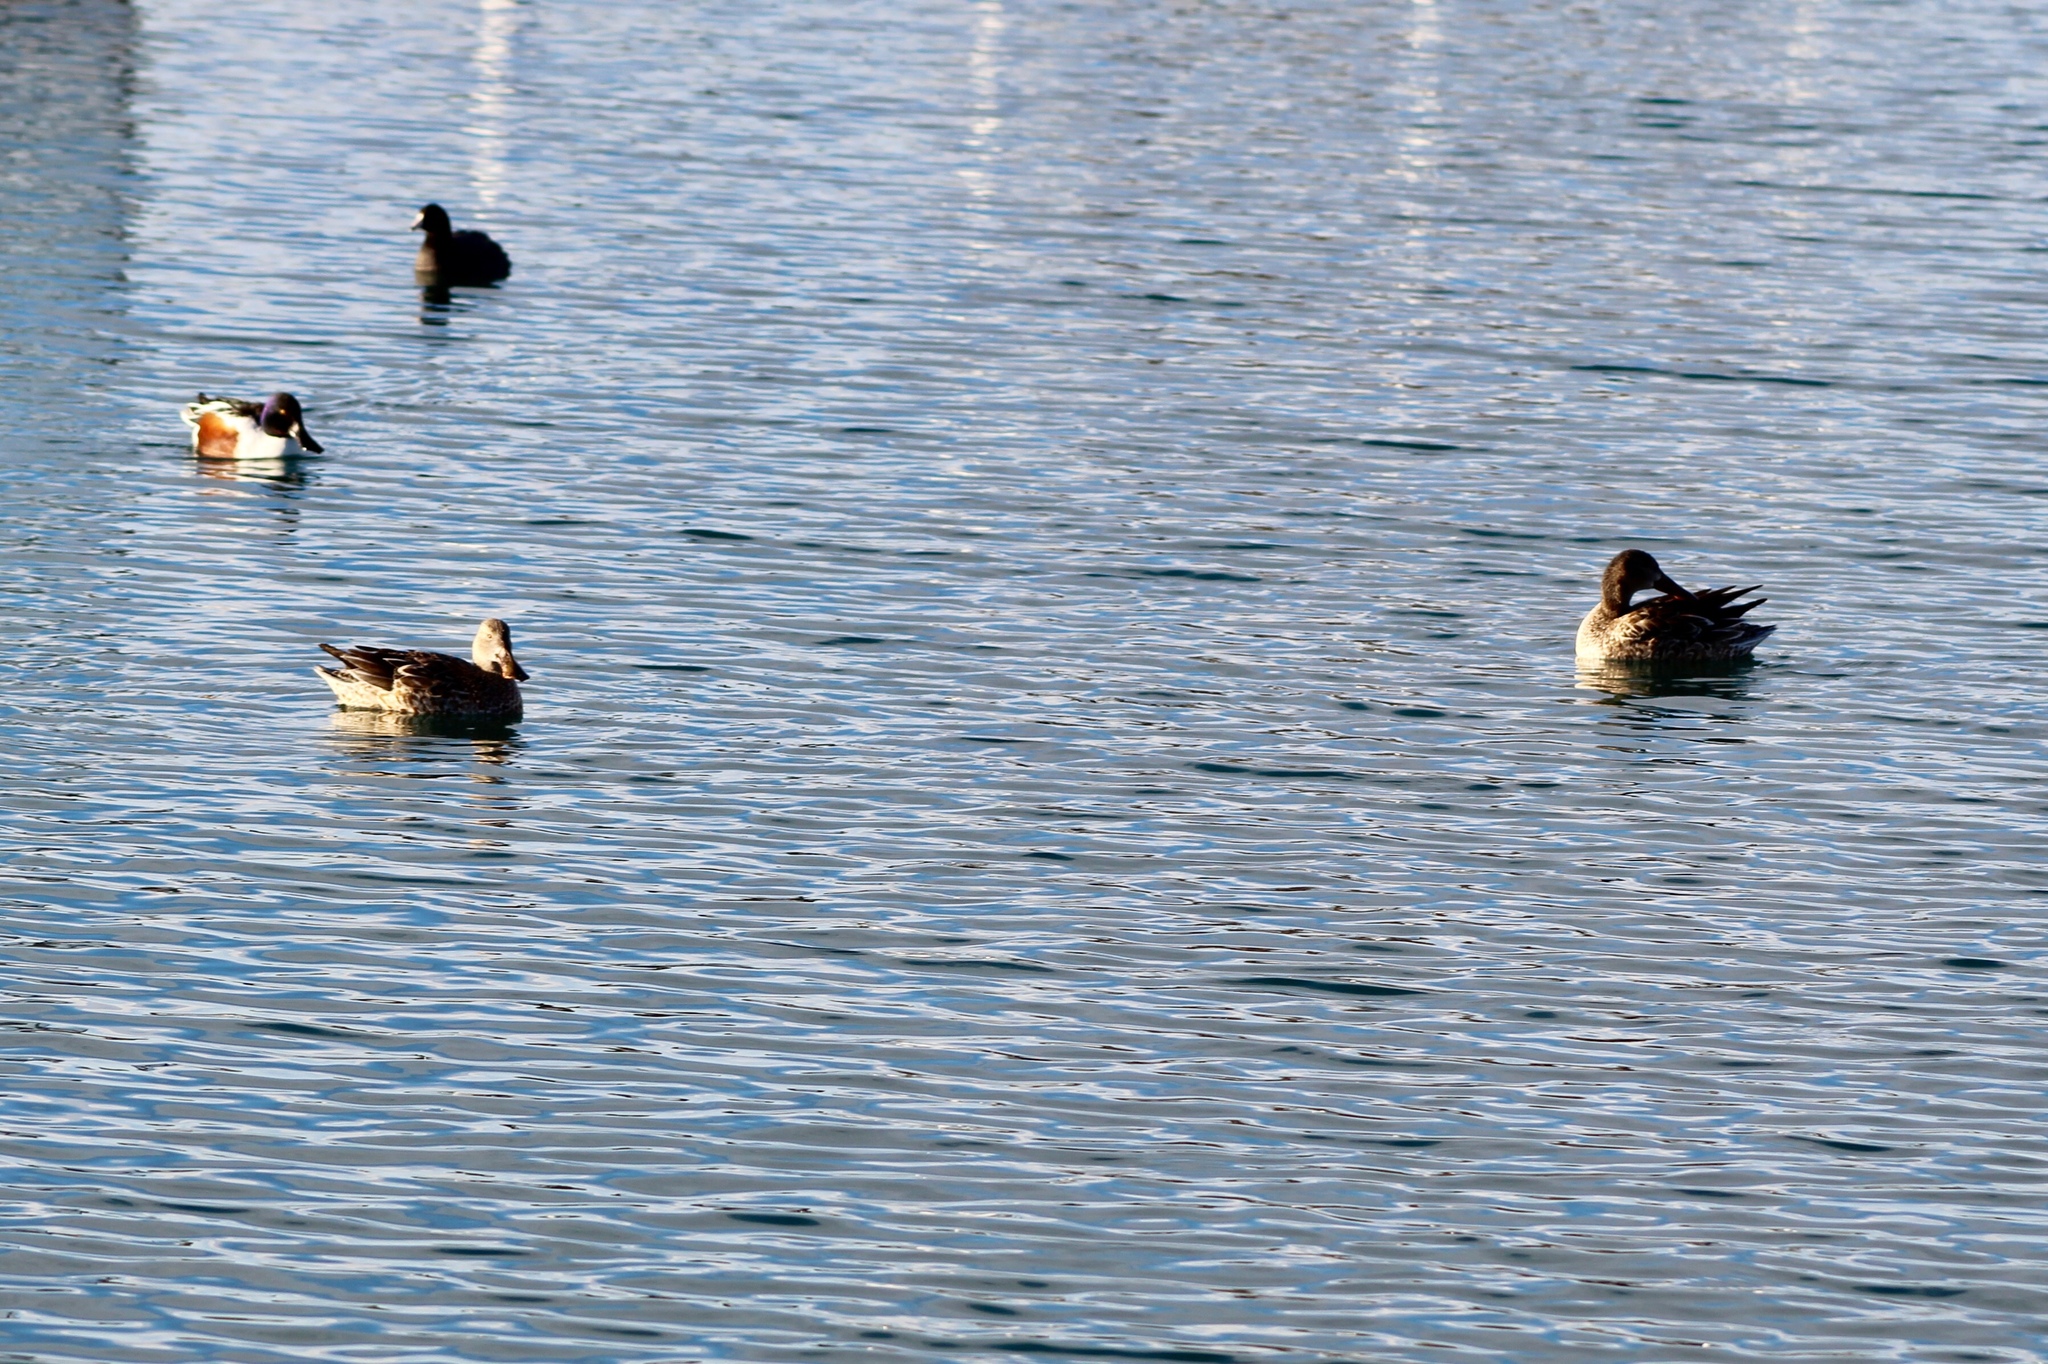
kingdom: Animalia
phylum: Chordata
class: Aves
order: Anseriformes
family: Anatidae
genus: Spatula
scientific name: Spatula clypeata
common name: Northern shoveler
